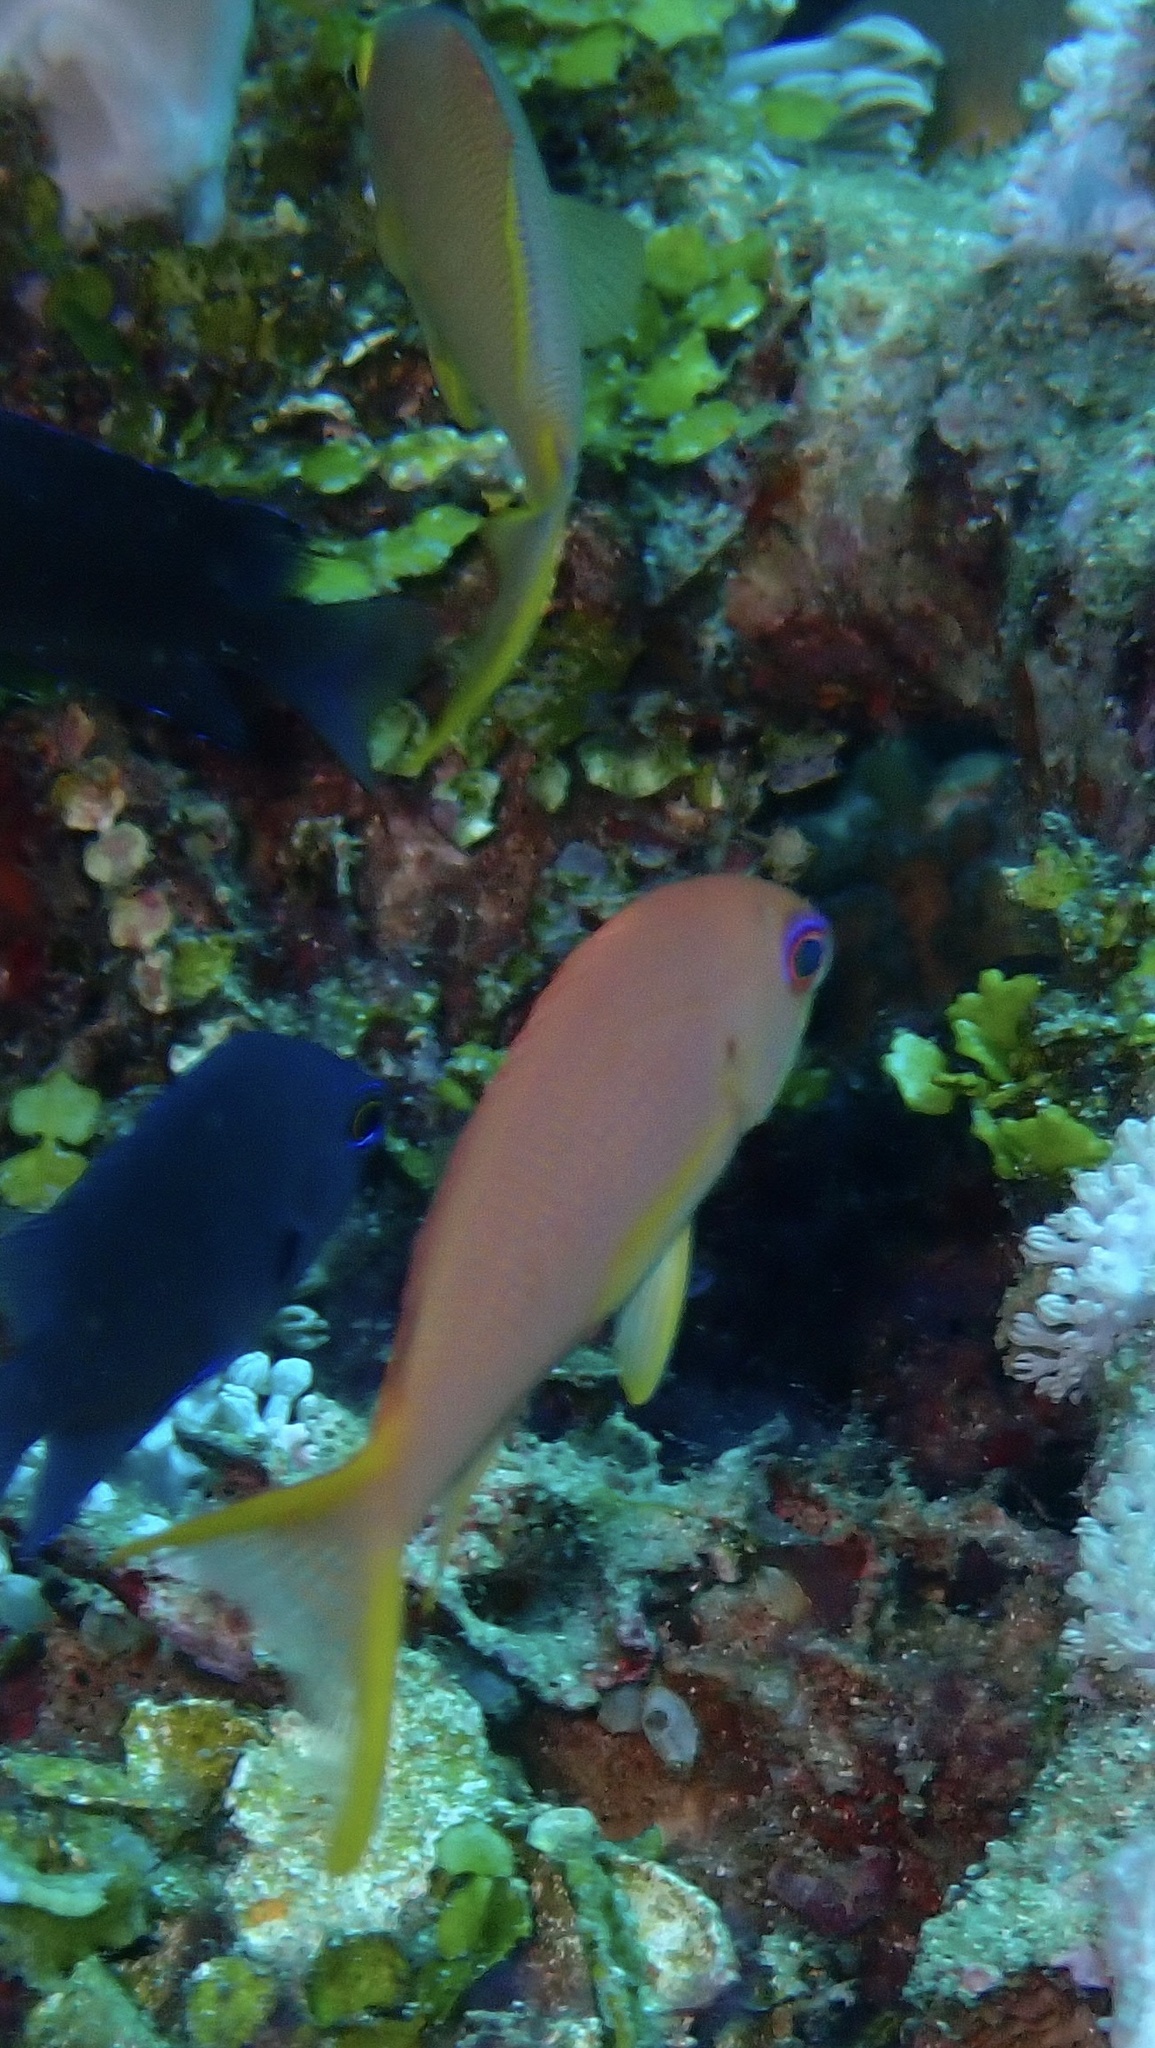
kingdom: Animalia
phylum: Chordata
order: Perciformes
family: Serranidae
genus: Pseudanthias
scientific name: Pseudanthias squamipinnis
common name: Scalefin anthias
